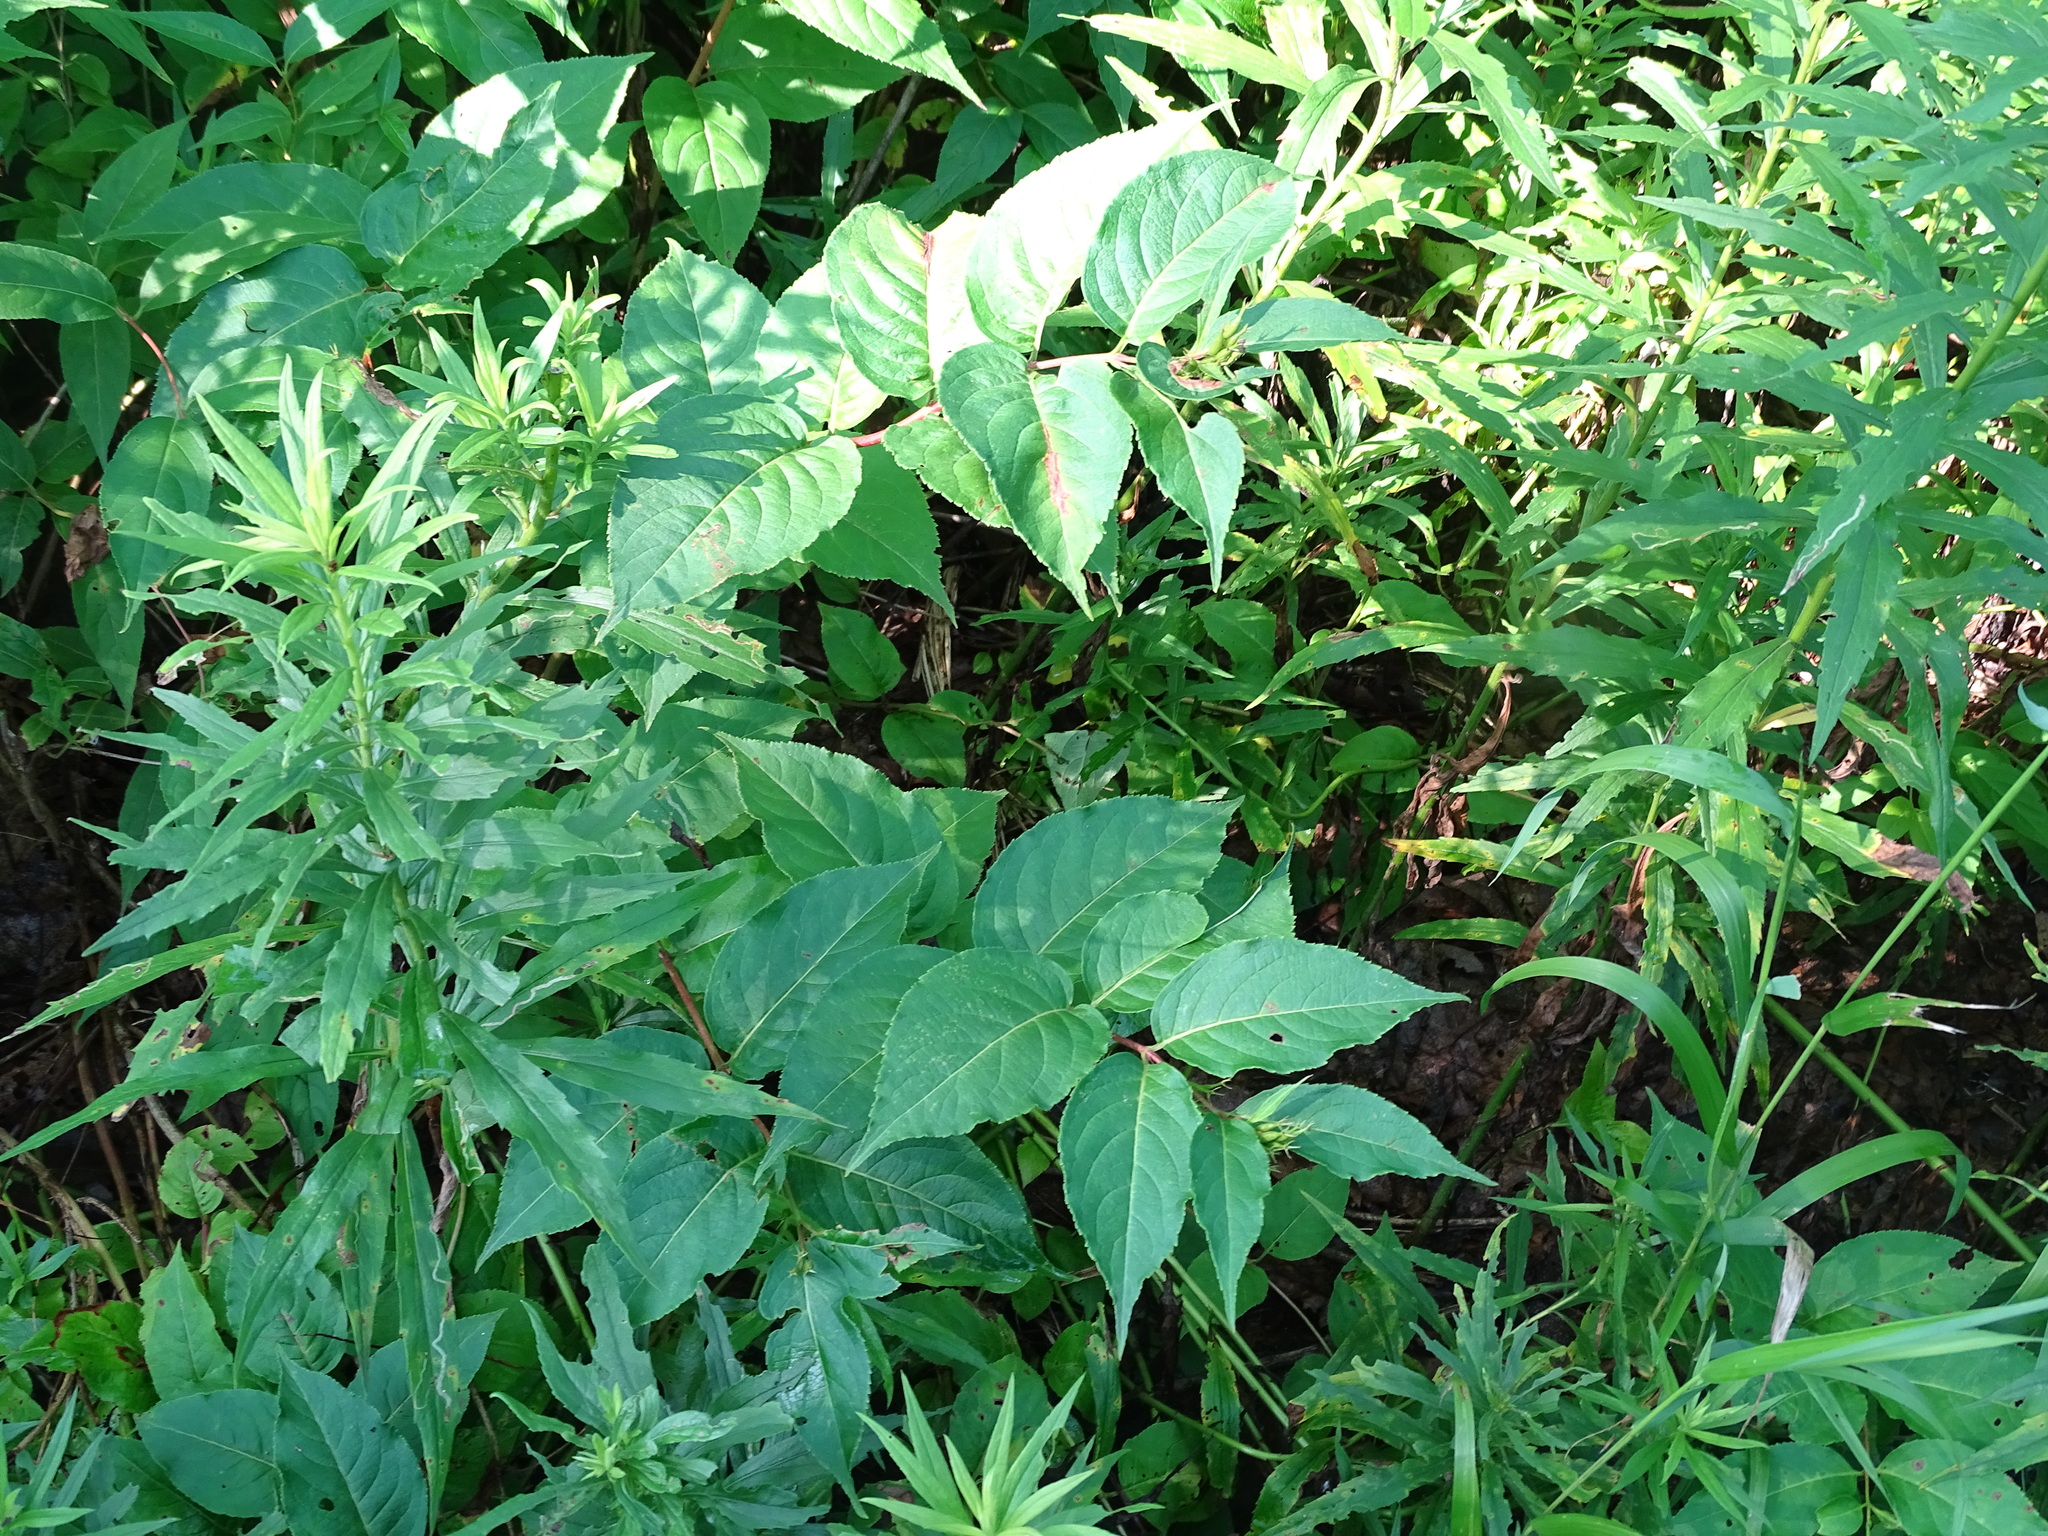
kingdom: Plantae
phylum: Tracheophyta
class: Magnoliopsida
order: Dipsacales
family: Caprifoliaceae
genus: Diervilla
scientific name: Diervilla lonicera
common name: Bush-honeysuckle
